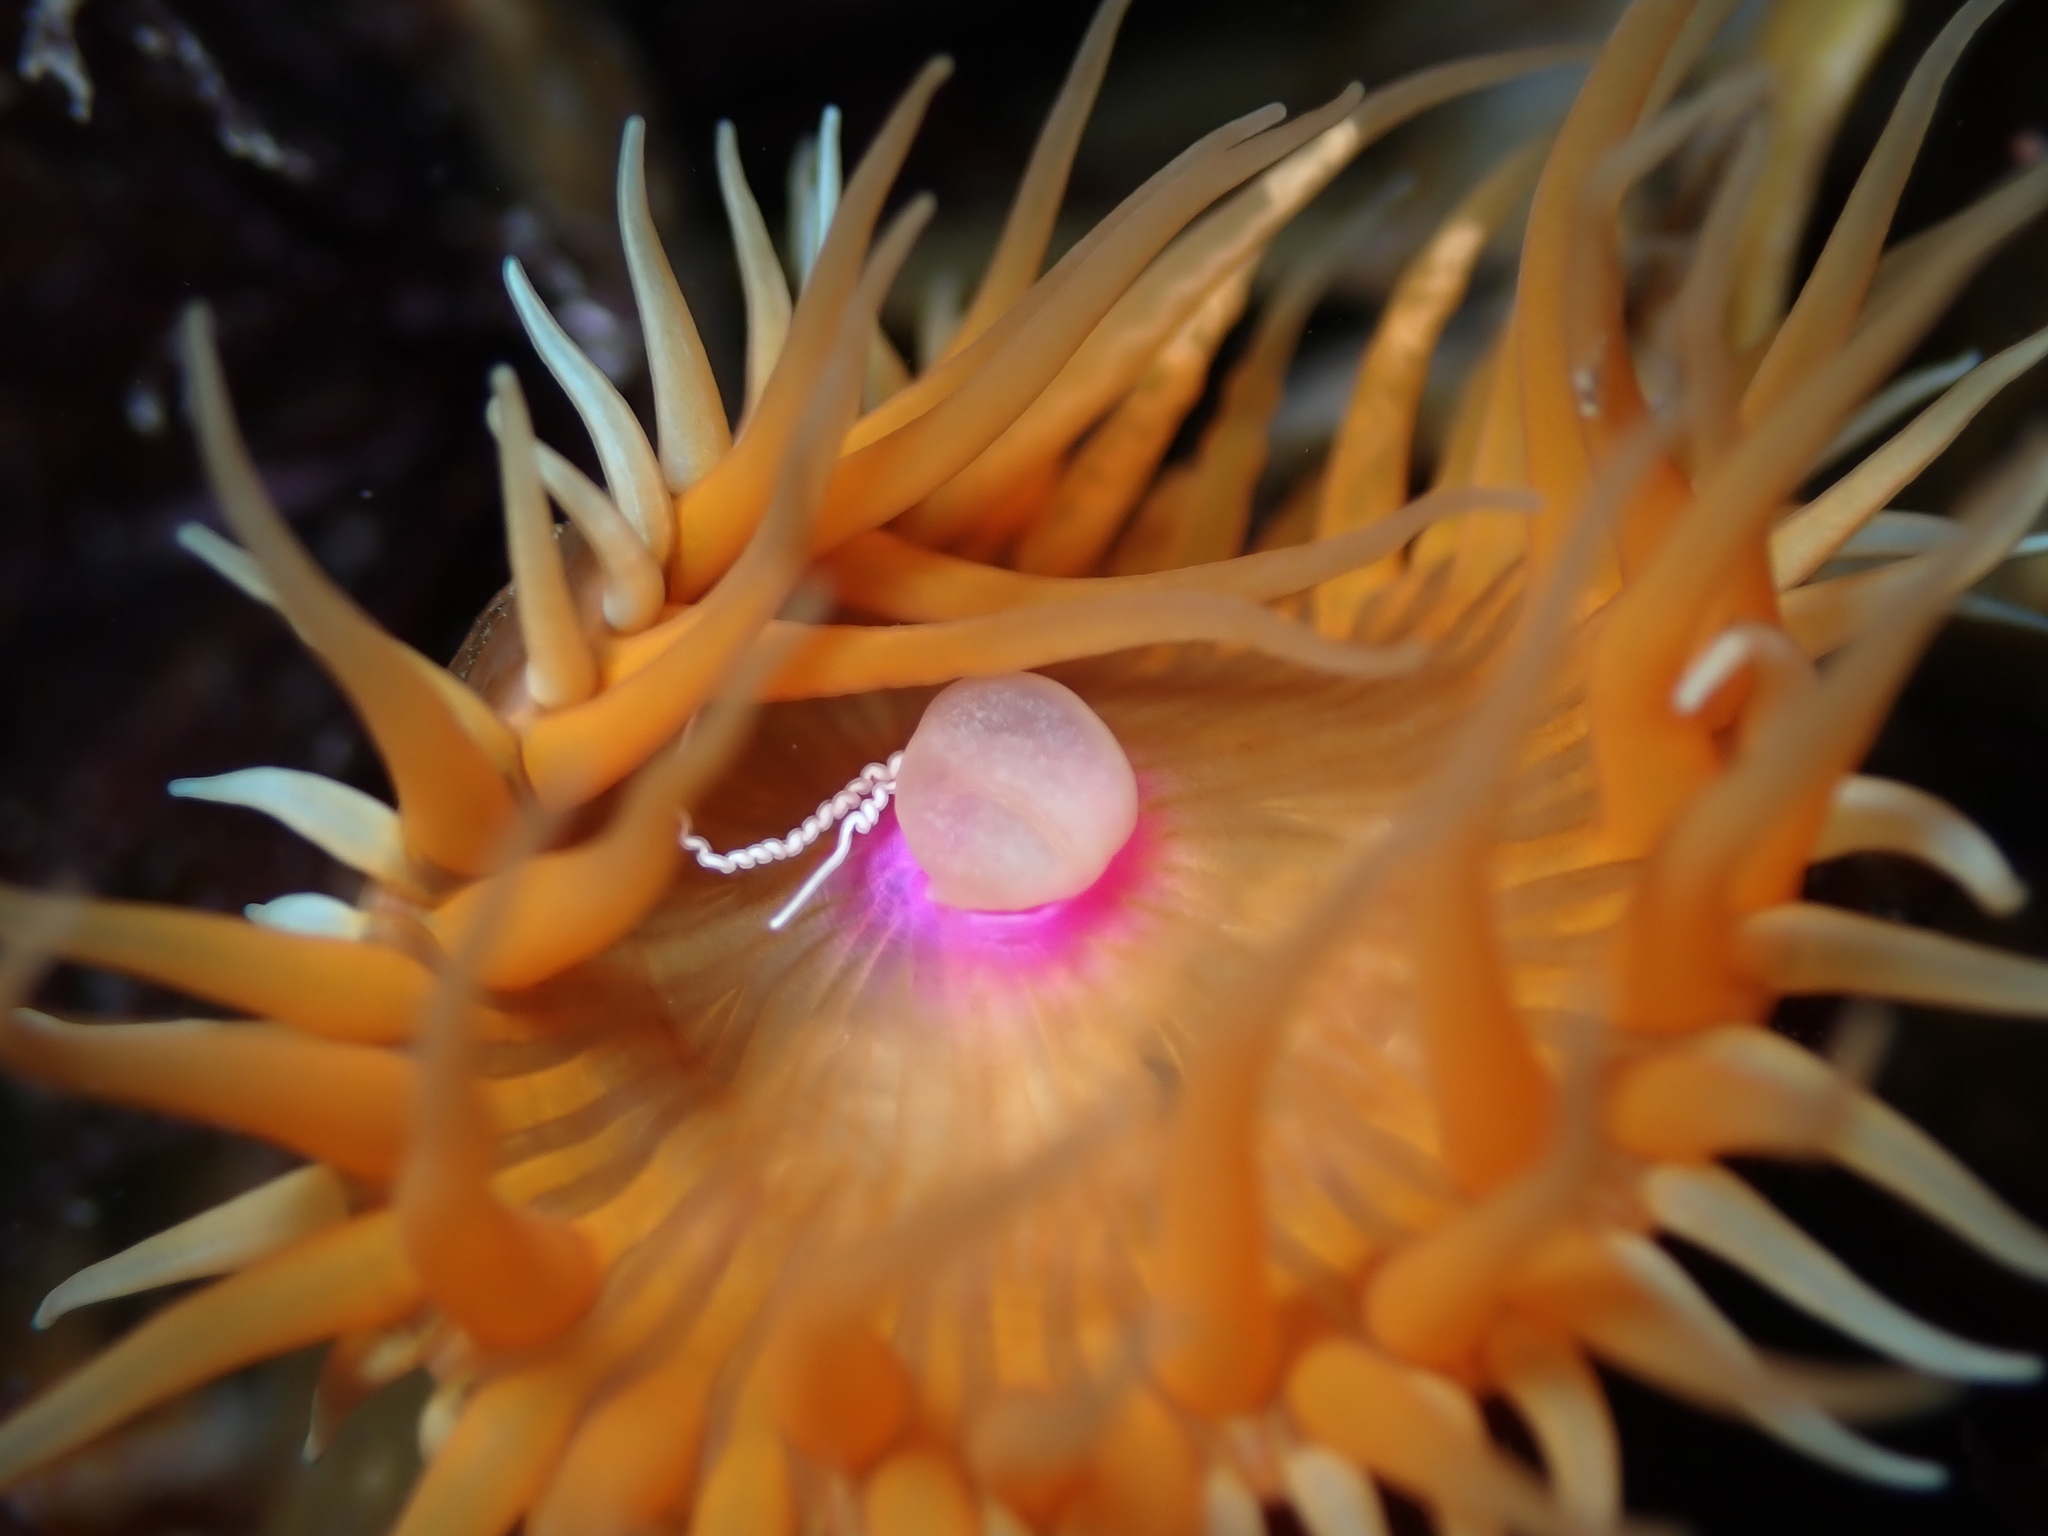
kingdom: Animalia
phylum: Cnidaria
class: Anthozoa
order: Actiniaria
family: Hormathiidae
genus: Handactis
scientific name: Handactis nutrix
